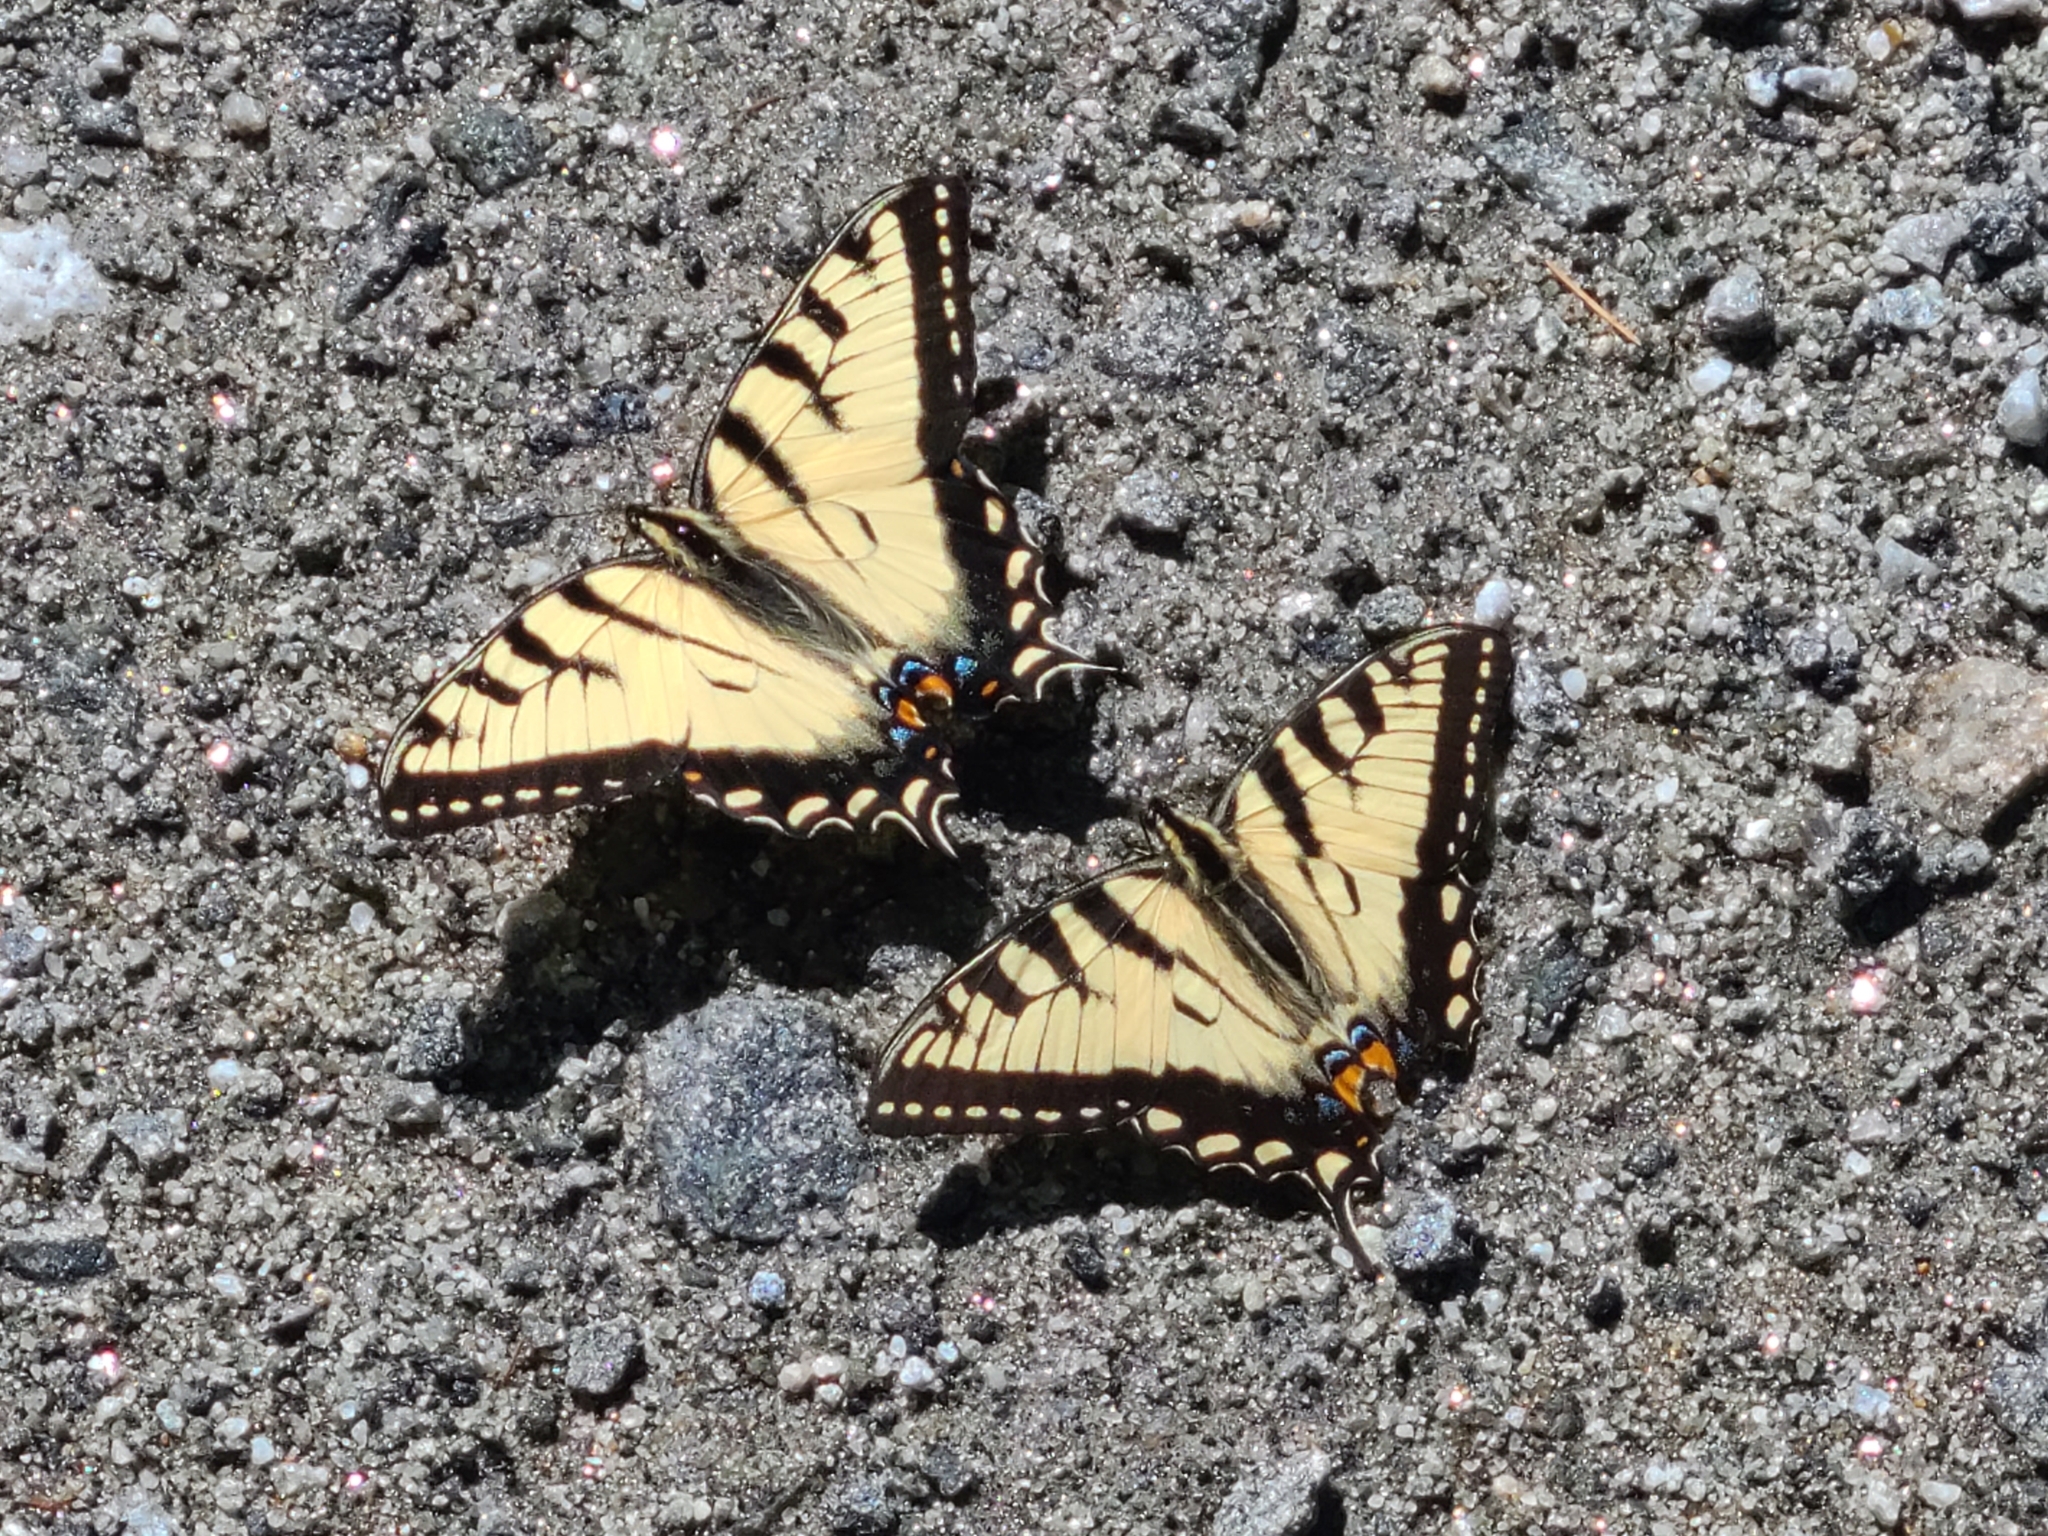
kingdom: Animalia
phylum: Arthropoda
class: Insecta
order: Lepidoptera
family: Papilionidae
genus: Papilio
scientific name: Papilio canadensis
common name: Canadian tiger swallowtail
